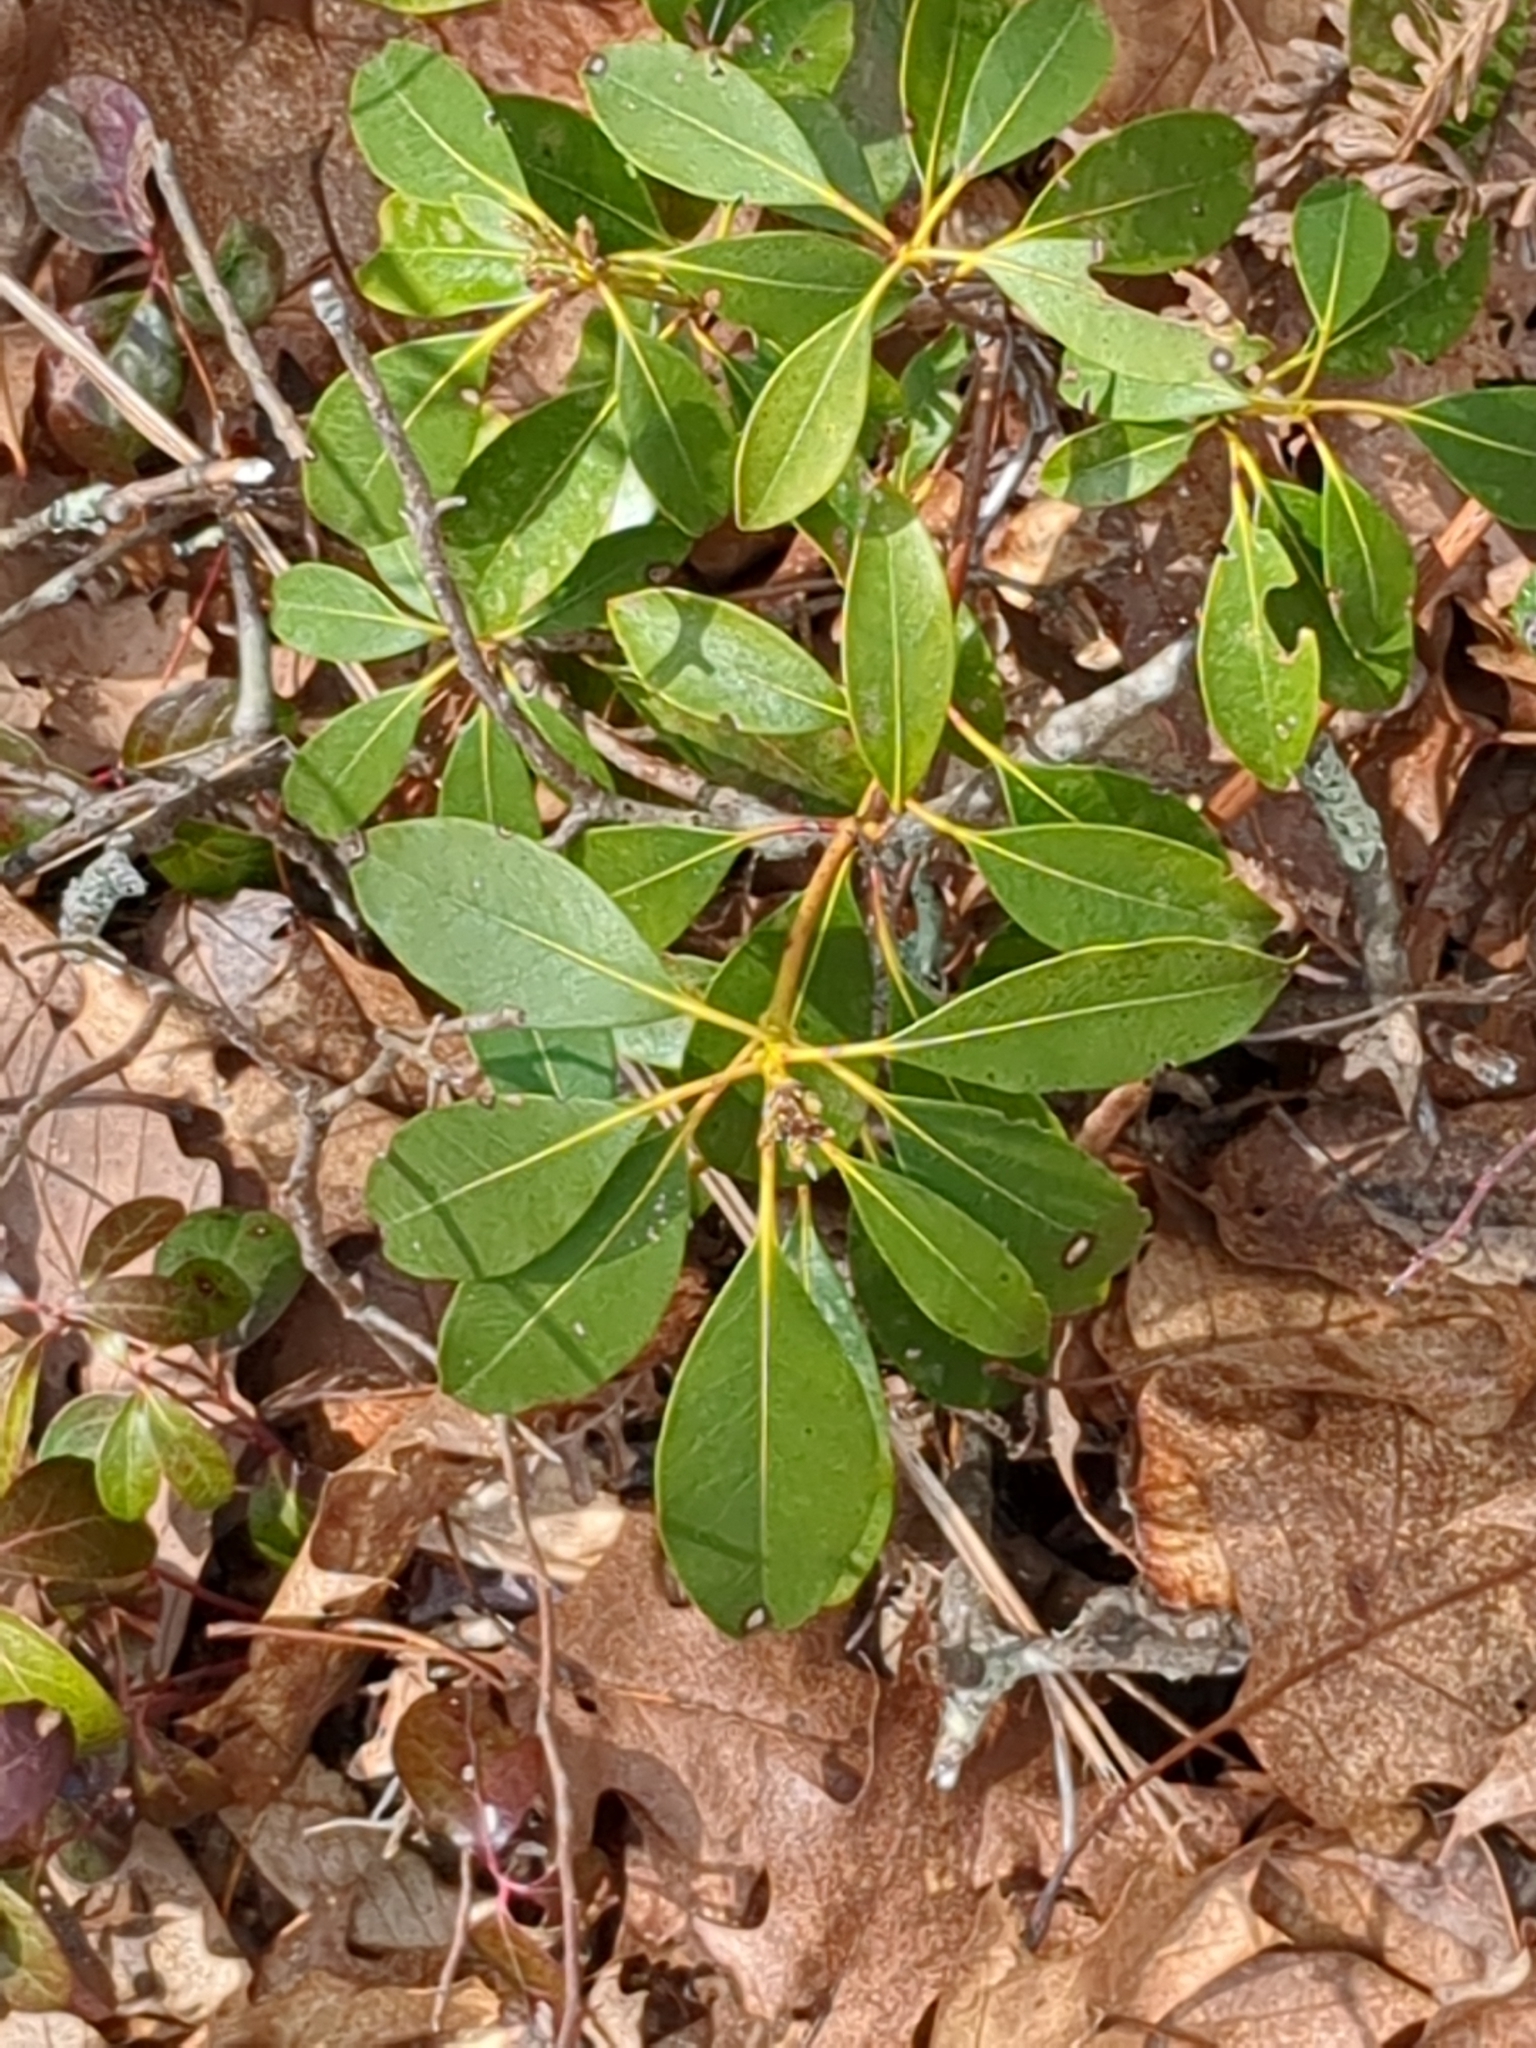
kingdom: Plantae
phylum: Tracheophyta
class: Magnoliopsida
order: Ericales
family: Ericaceae
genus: Kalmia
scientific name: Kalmia latifolia
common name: Mountain-laurel
